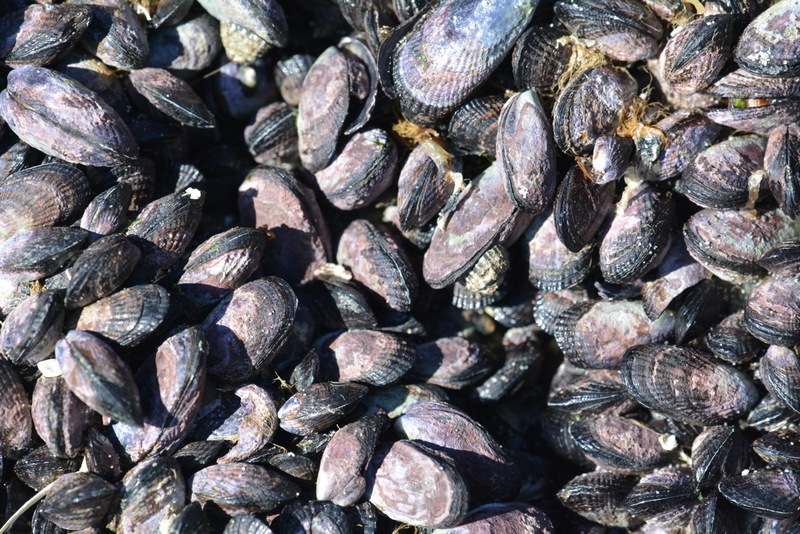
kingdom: Animalia
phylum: Mollusca
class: Bivalvia
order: Mytilida
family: Mytilidae
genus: Perumytilus
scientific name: Perumytilus purpuratus
